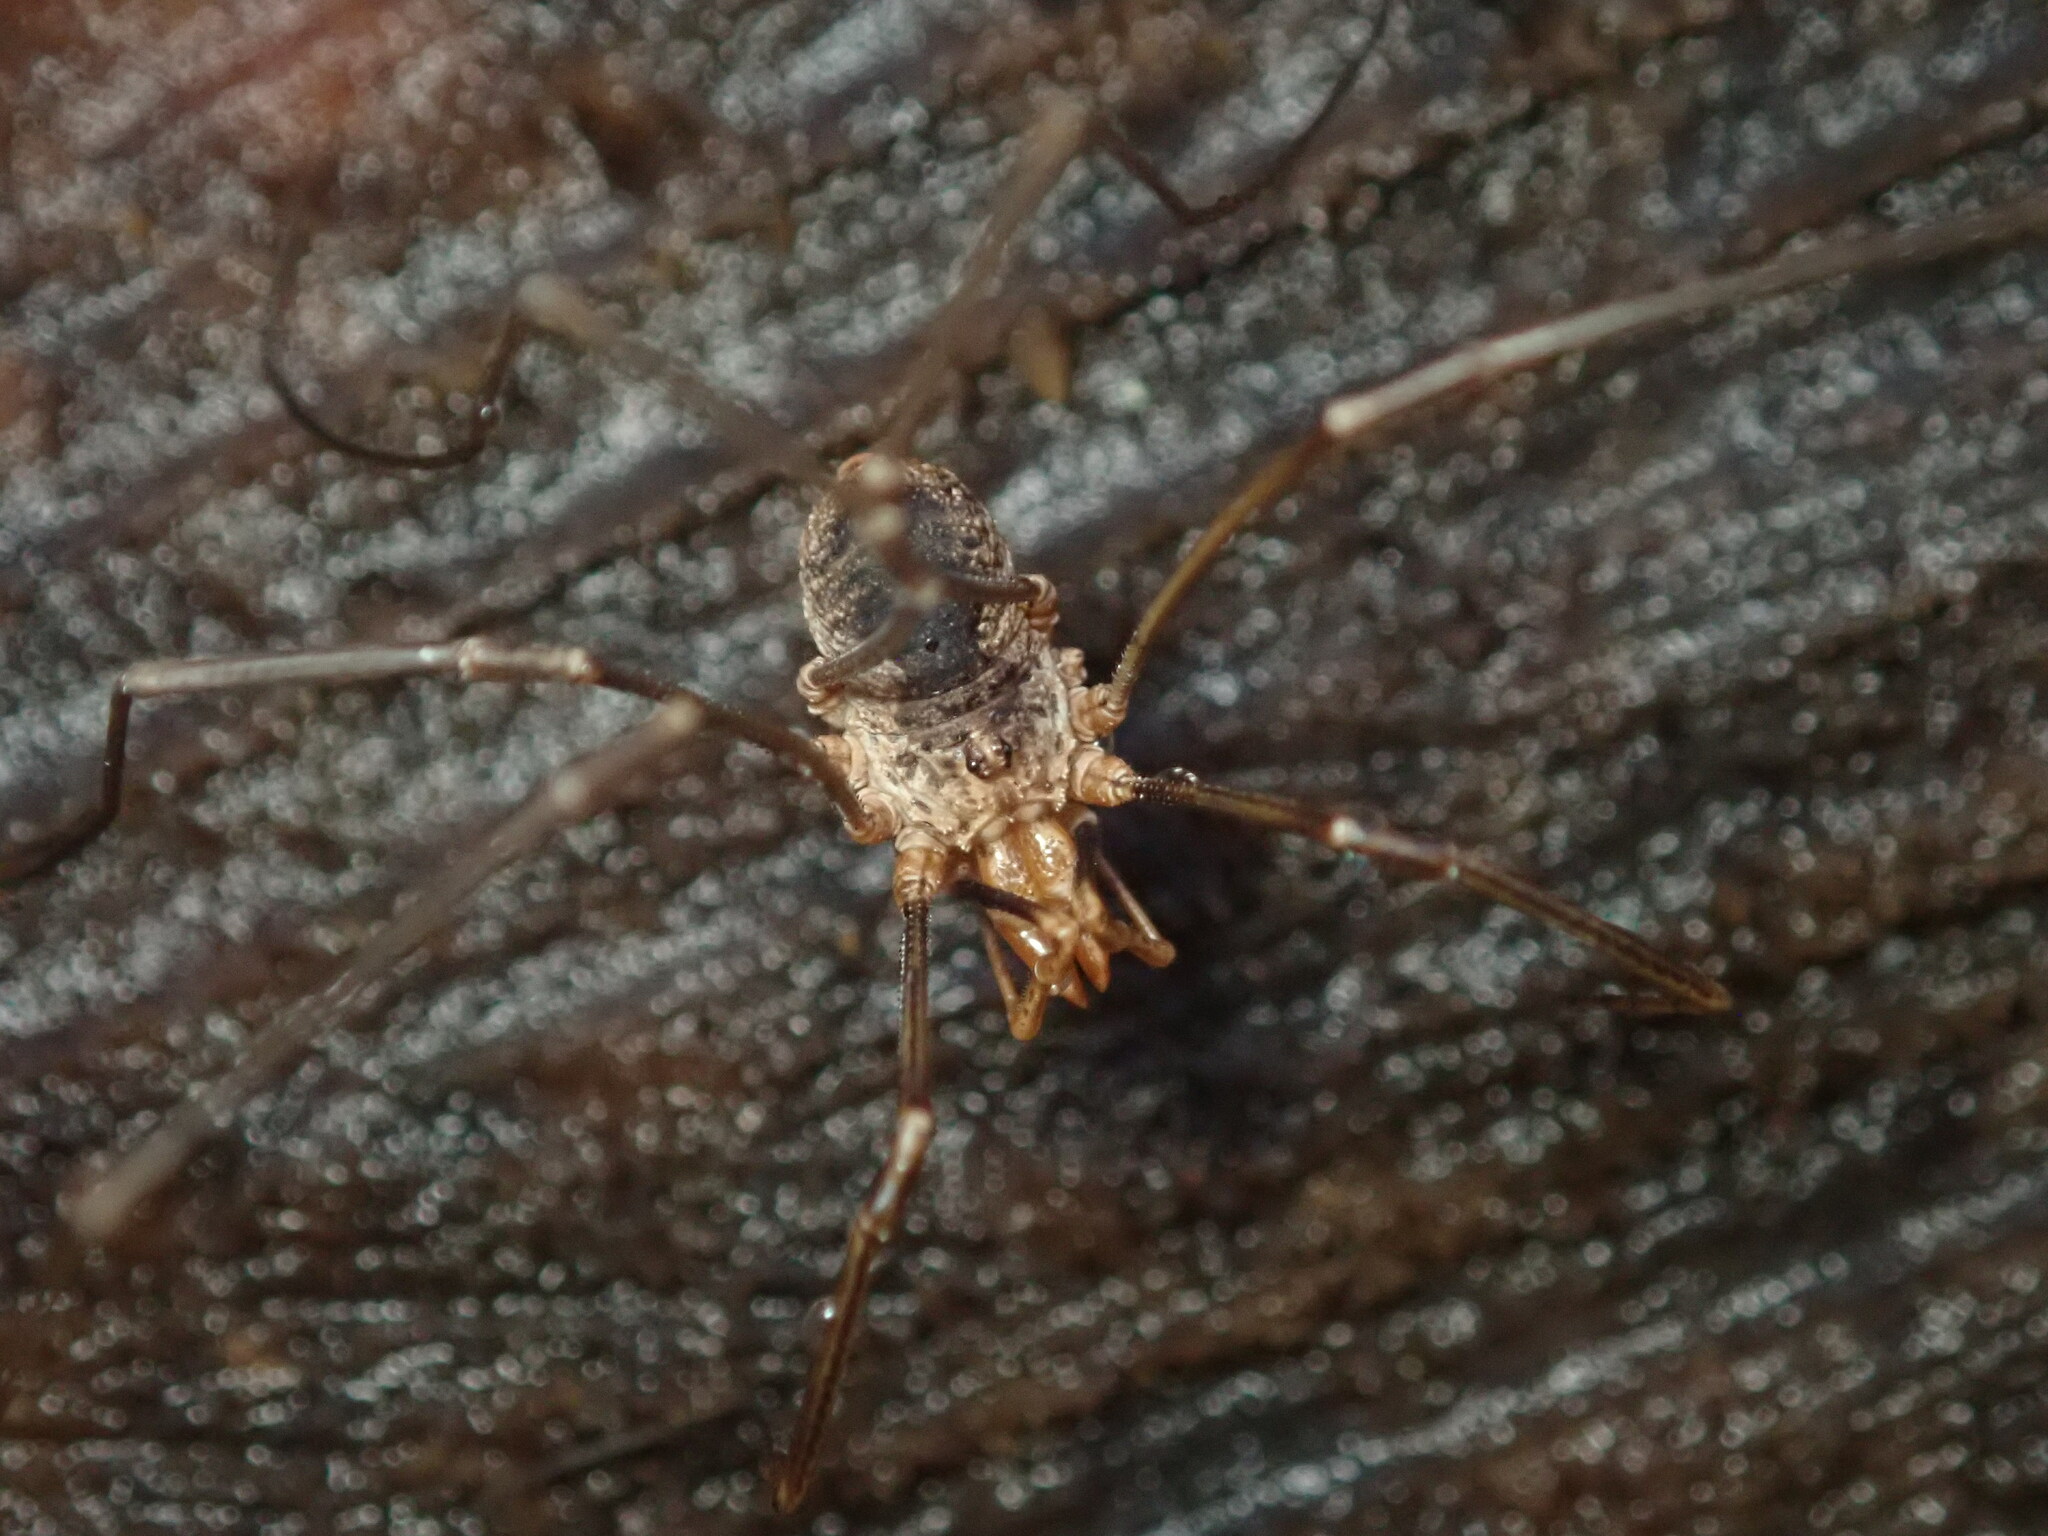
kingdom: Animalia
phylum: Arthropoda
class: Arachnida
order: Opiliones
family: Phalangiidae
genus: Phalangium
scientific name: Phalangium opilio
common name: Daddy longleg
